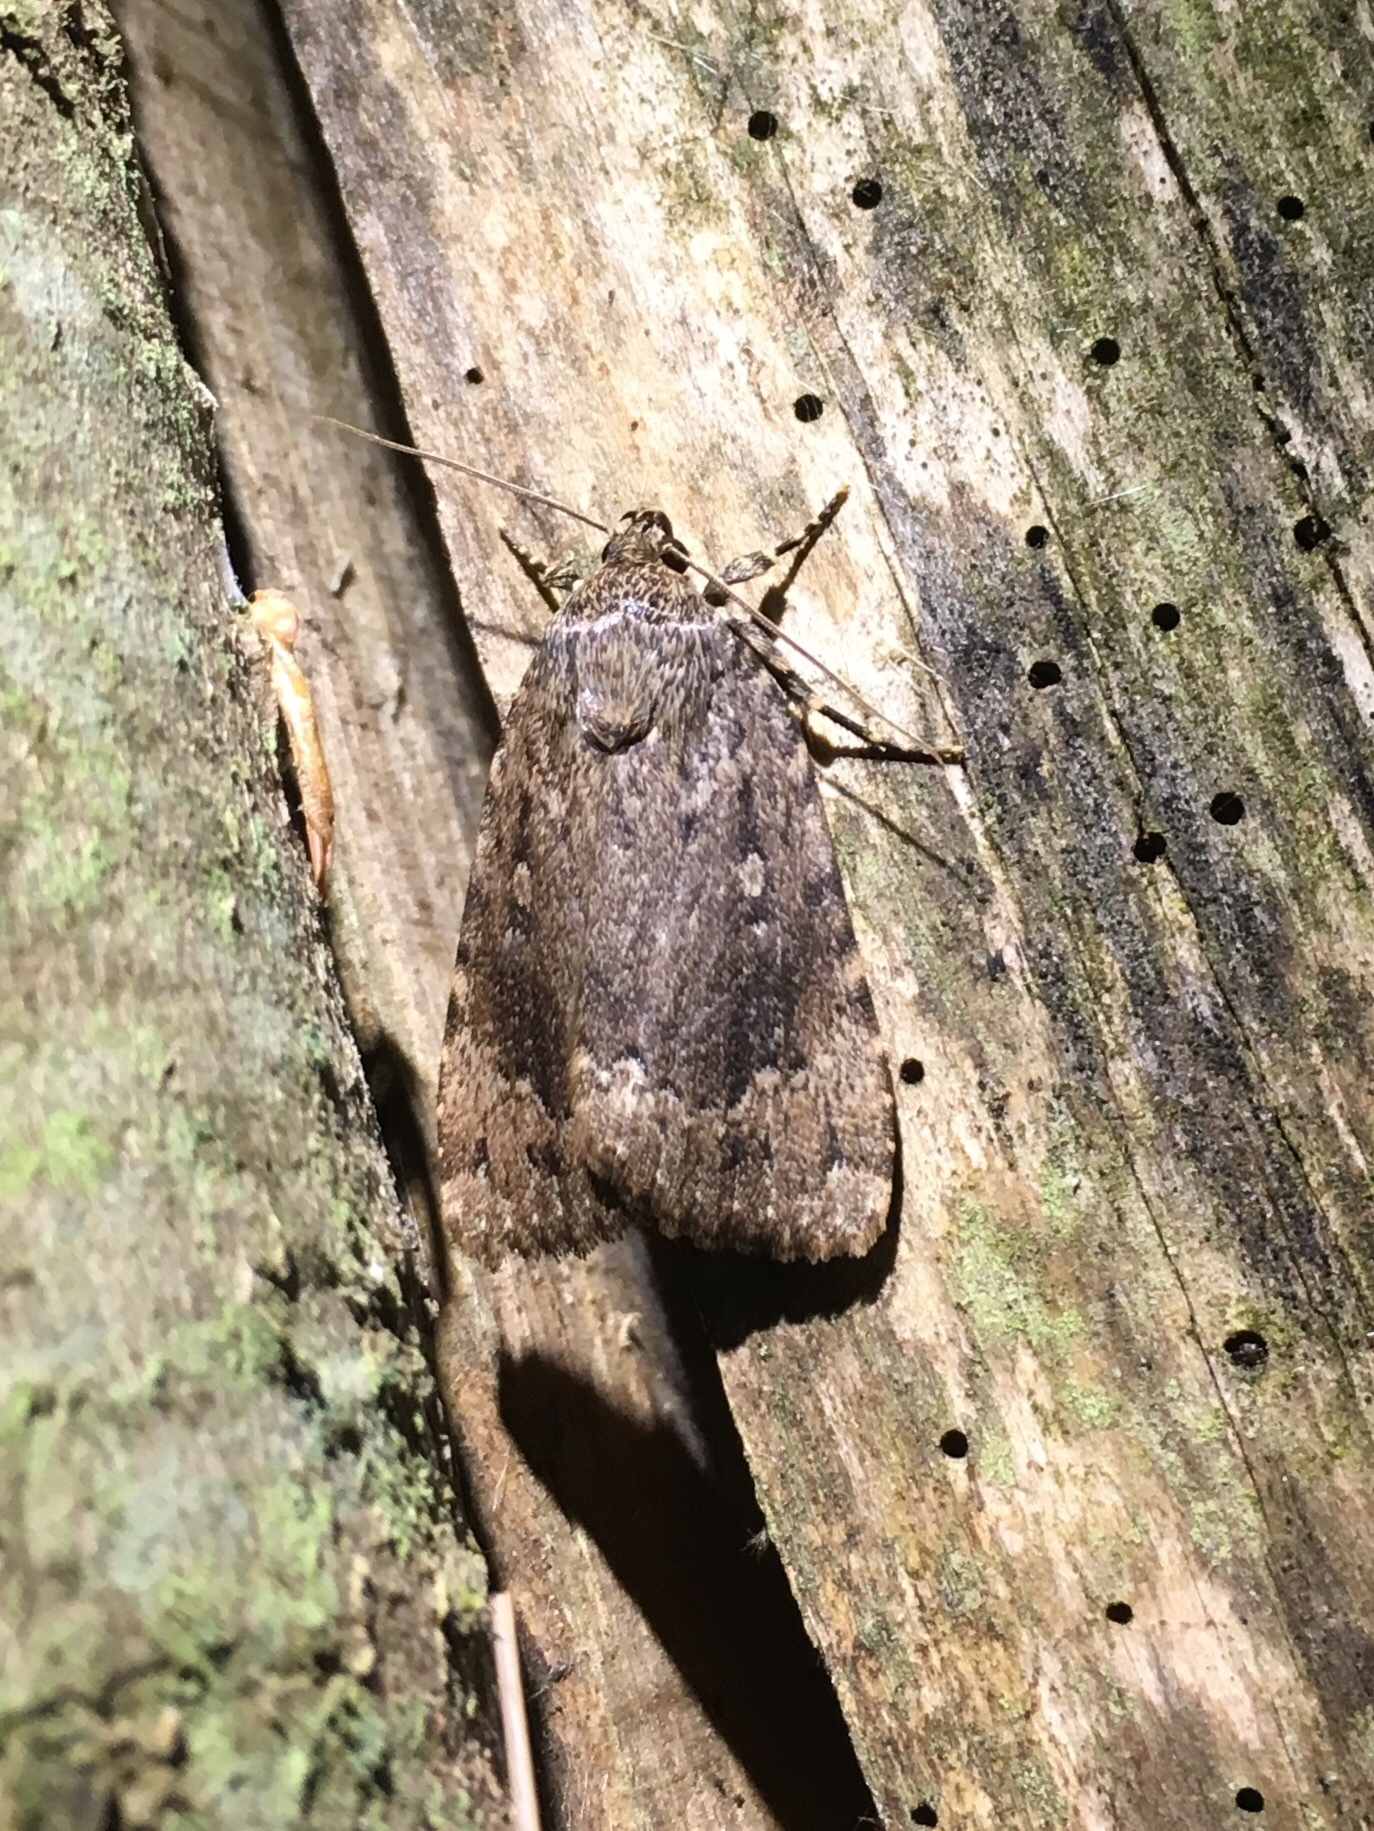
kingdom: Animalia
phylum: Arthropoda
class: Insecta
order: Lepidoptera
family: Noctuidae
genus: Amphipyra
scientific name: Amphipyra pyramidoides
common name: American copper underwing
